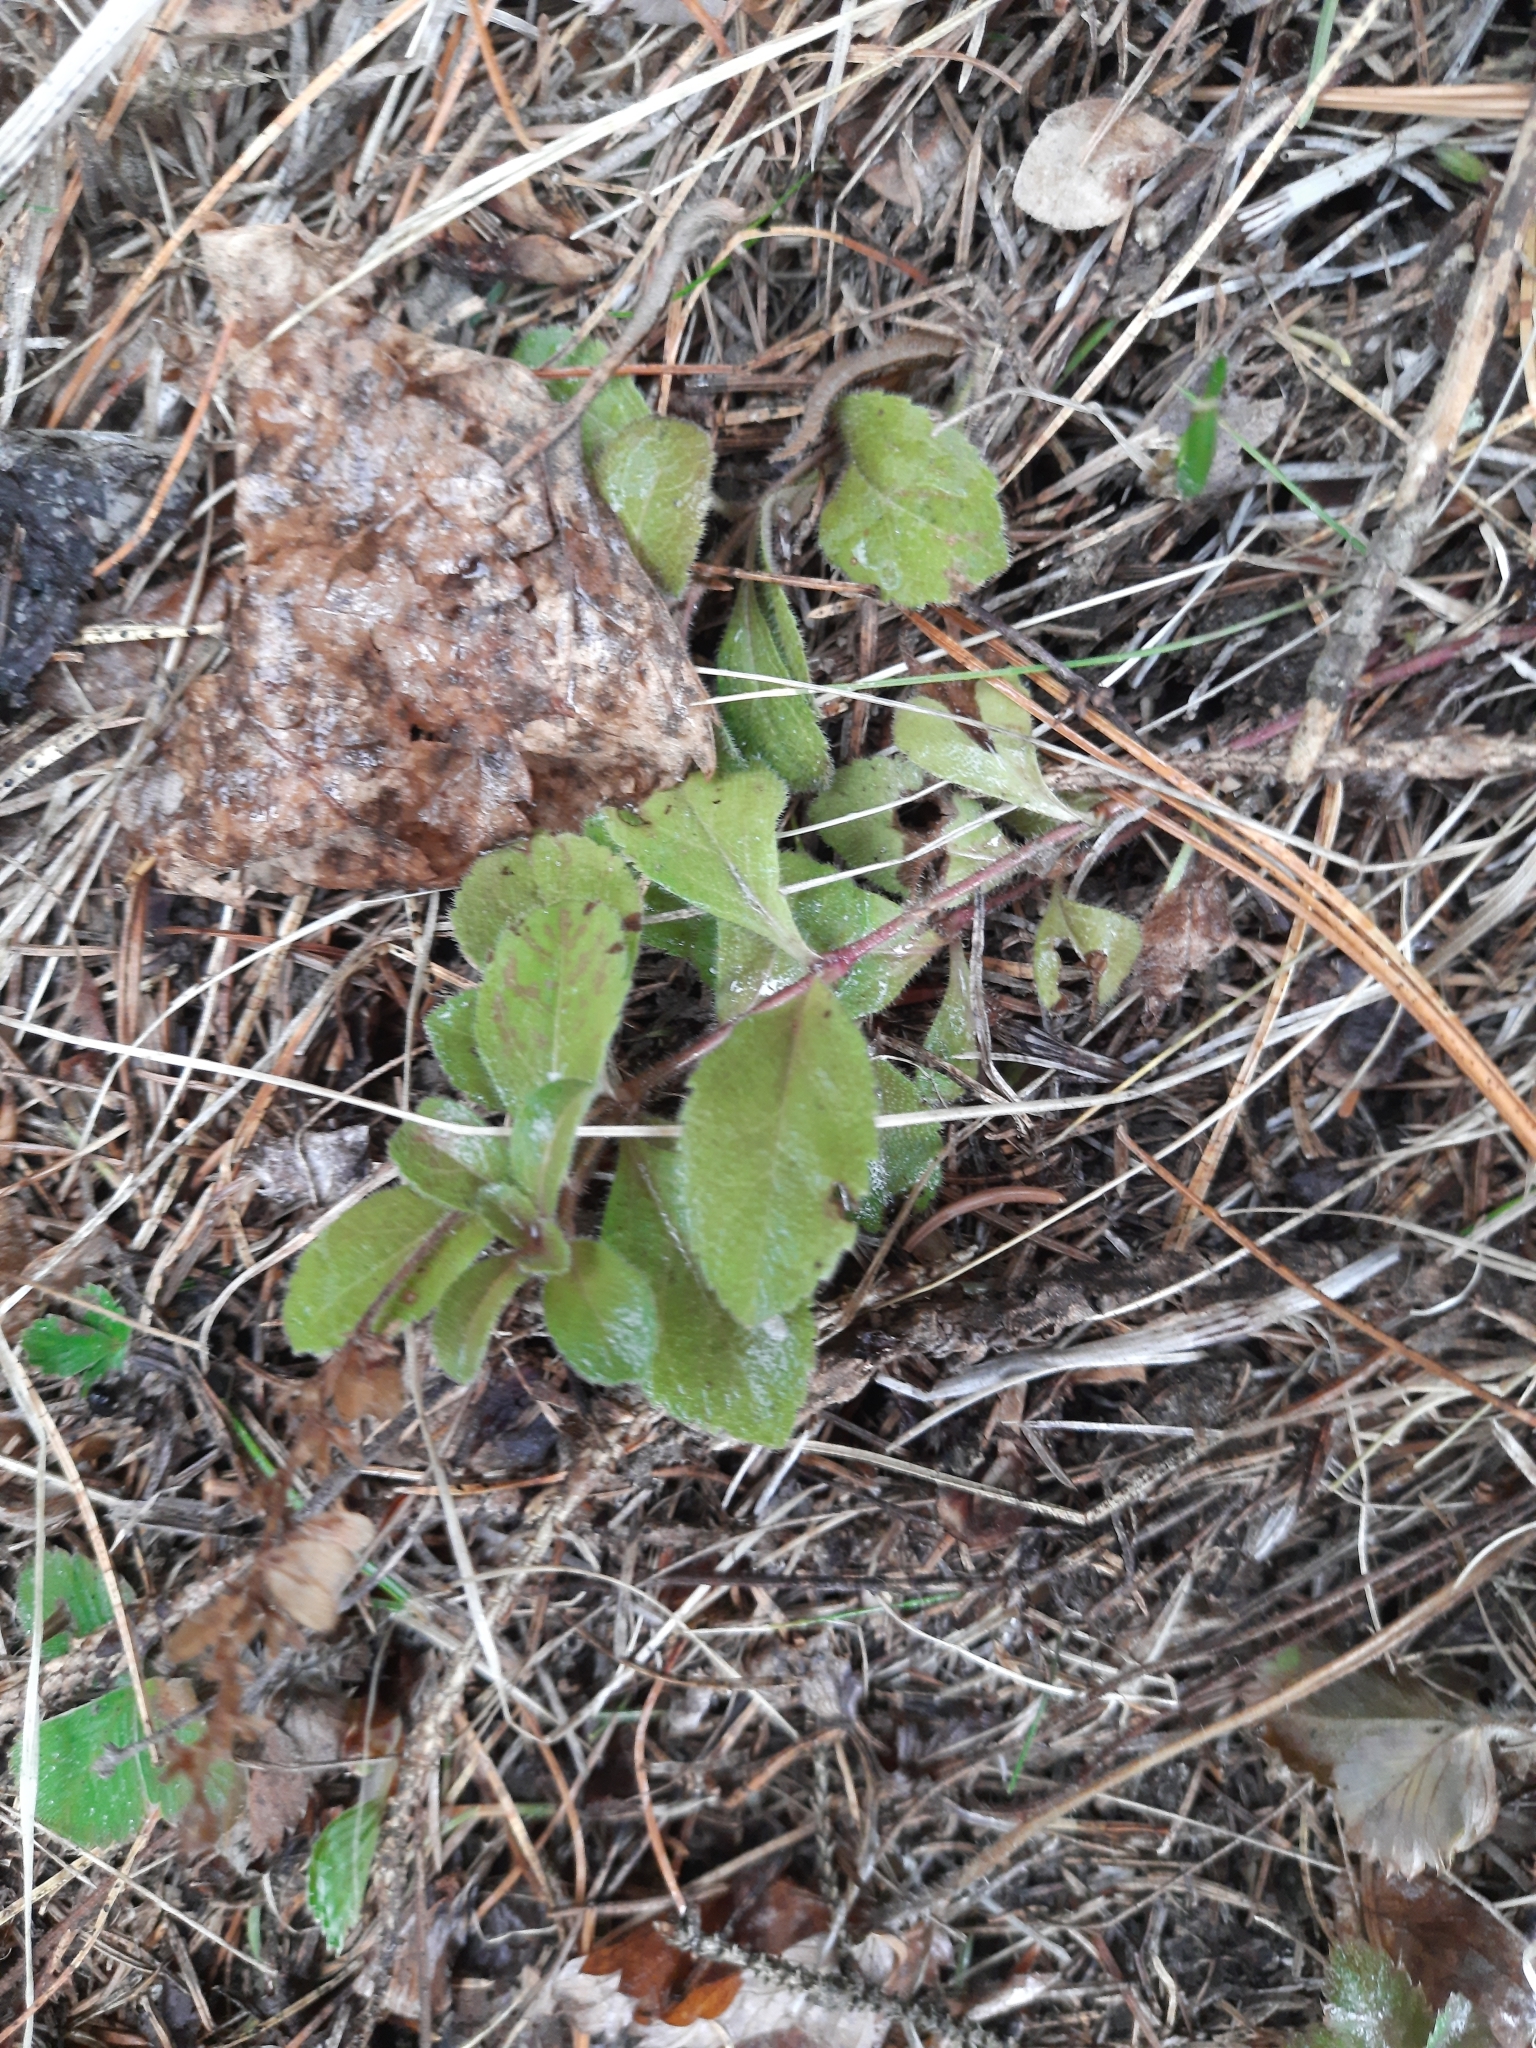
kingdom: Plantae
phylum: Tracheophyta
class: Magnoliopsida
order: Lamiales
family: Plantaginaceae
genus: Veronica
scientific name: Veronica officinalis
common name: Common speedwell
